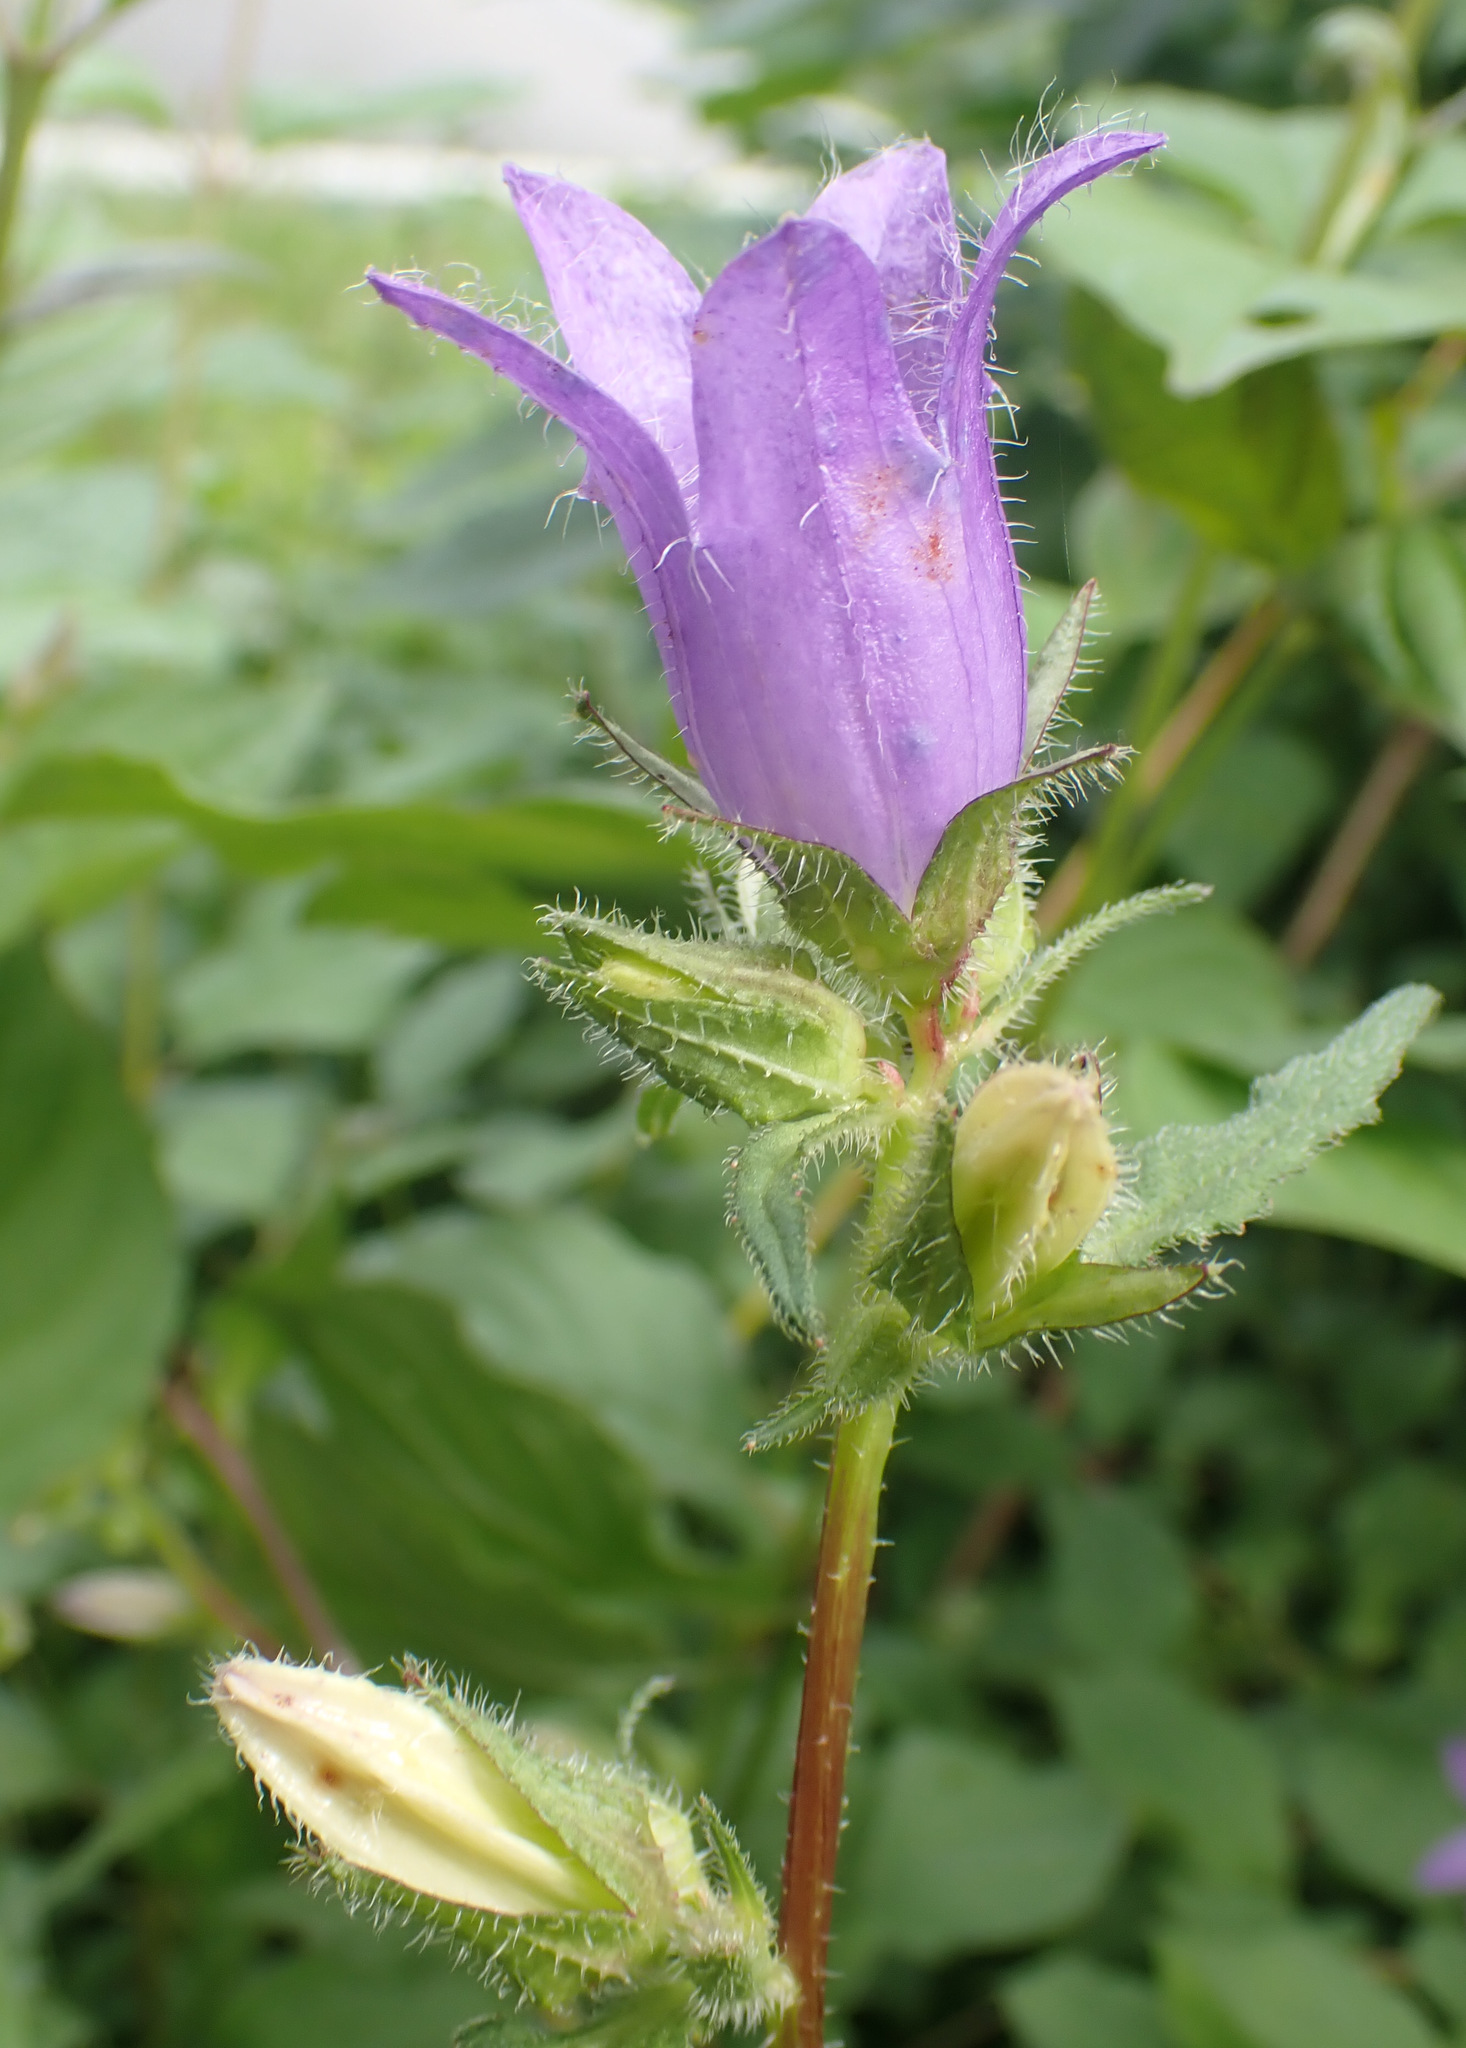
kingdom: Plantae
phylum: Tracheophyta
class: Magnoliopsida
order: Asterales
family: Campanulaceae
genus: Campanula
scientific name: Campanula trachelium
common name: Nettle-leaved bellflower
